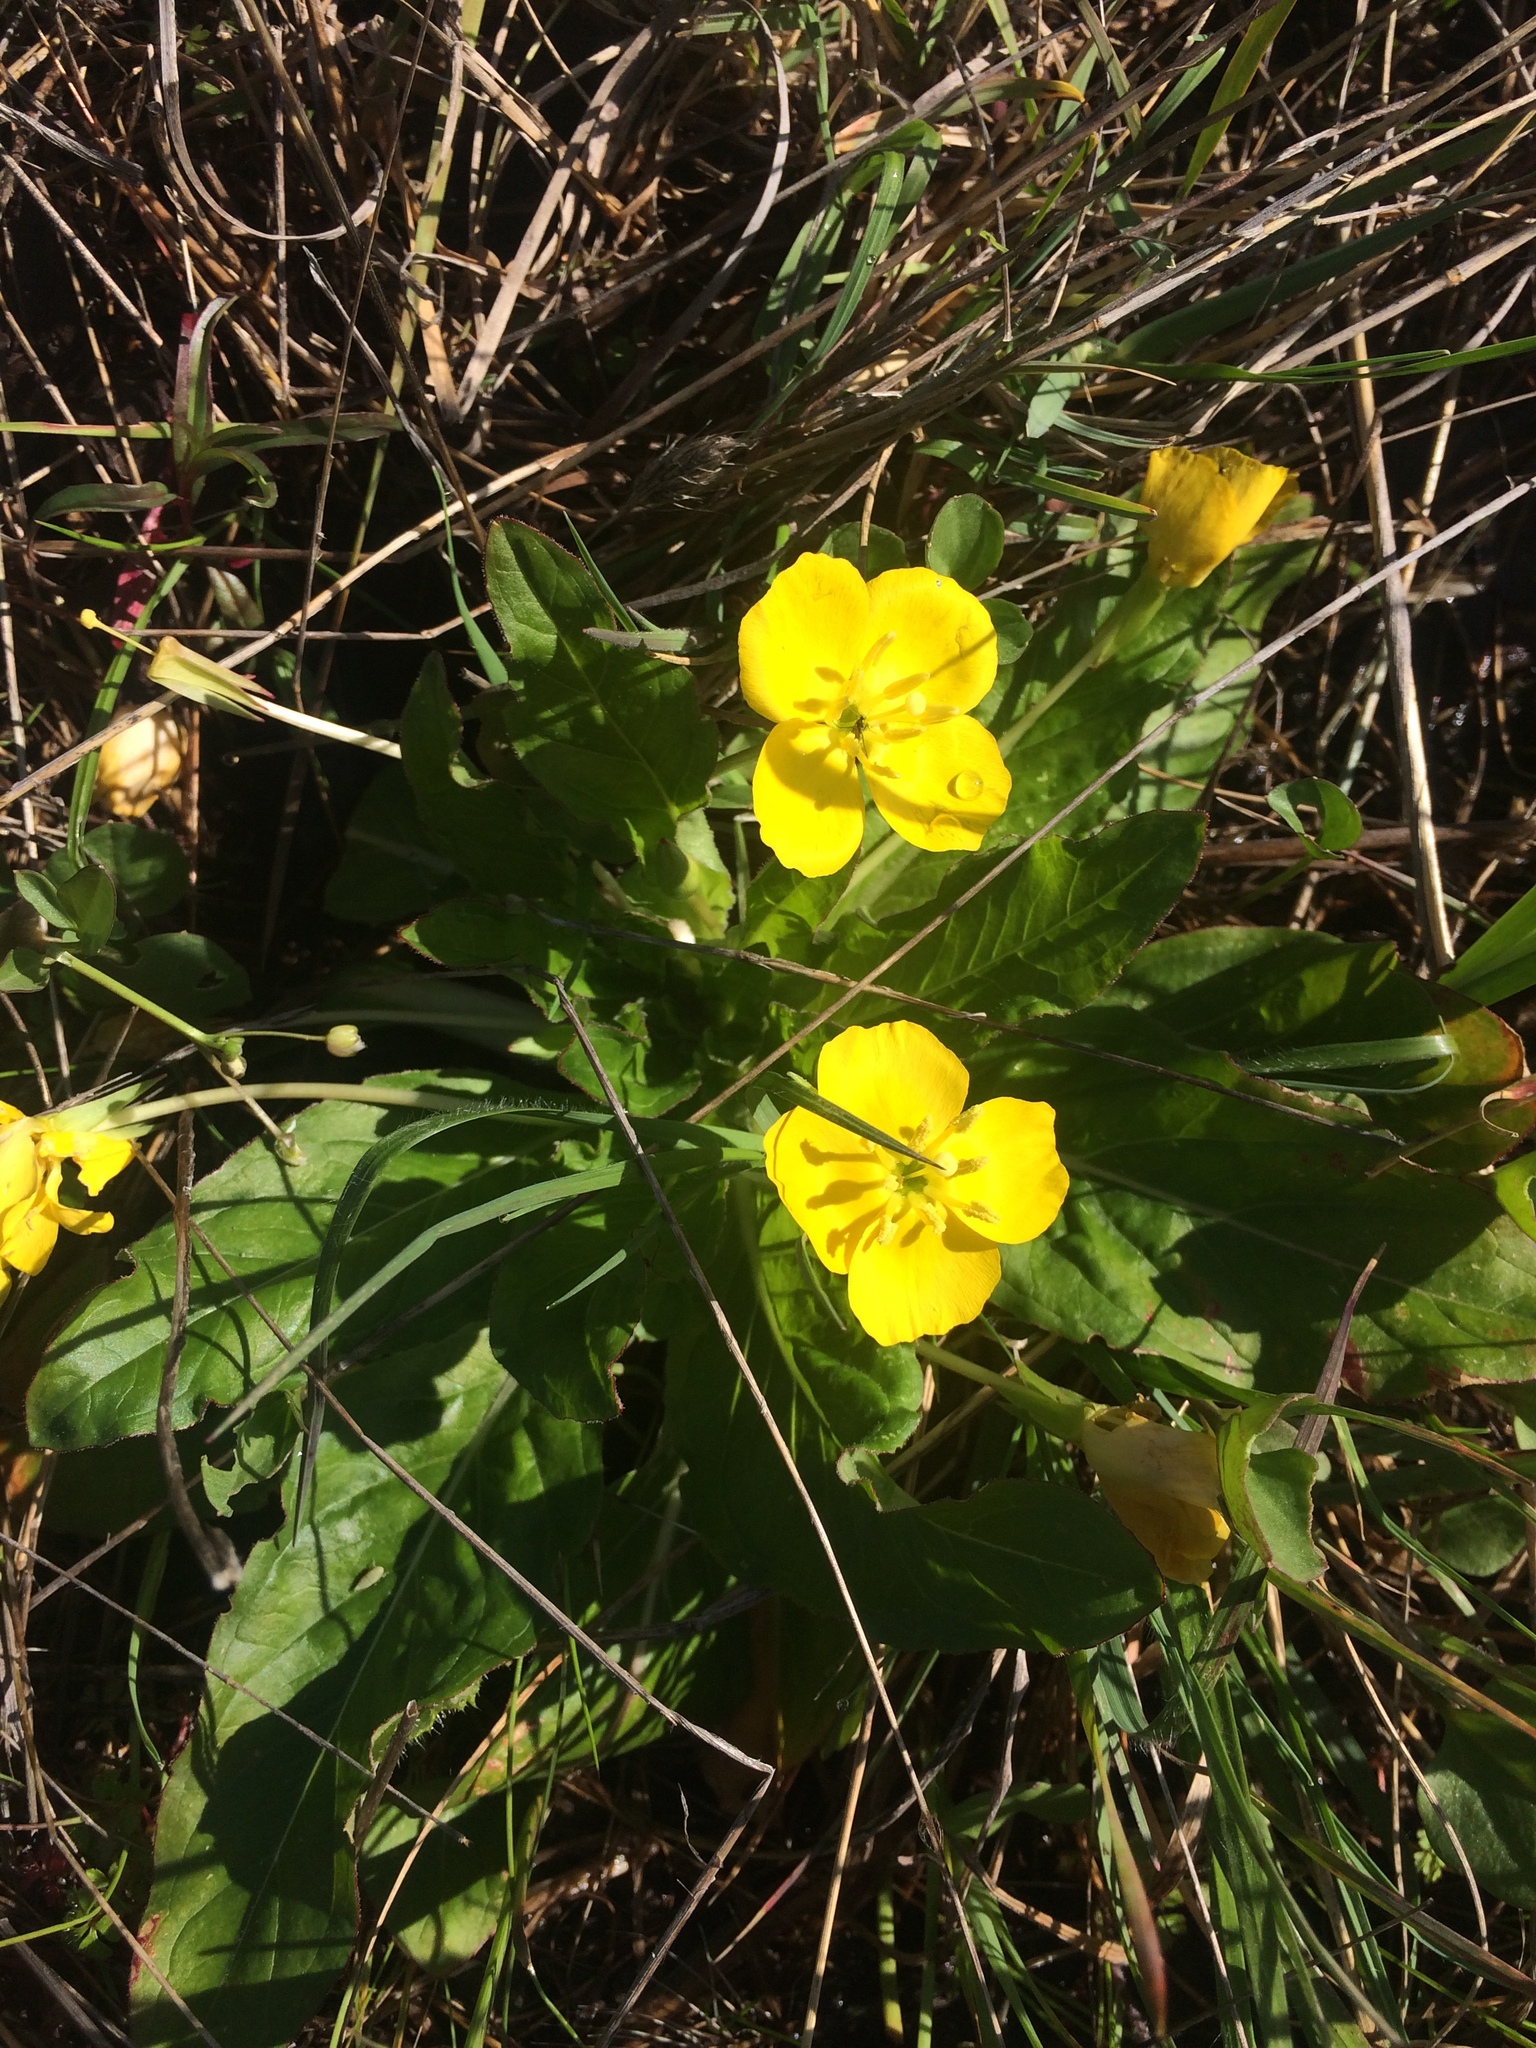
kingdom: Plantae
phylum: Tracheophyta
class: Magnoliopsida
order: Myrtales
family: Onagraceae
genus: Taraxia
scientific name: Taraxia ovata
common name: Goldeneggs
